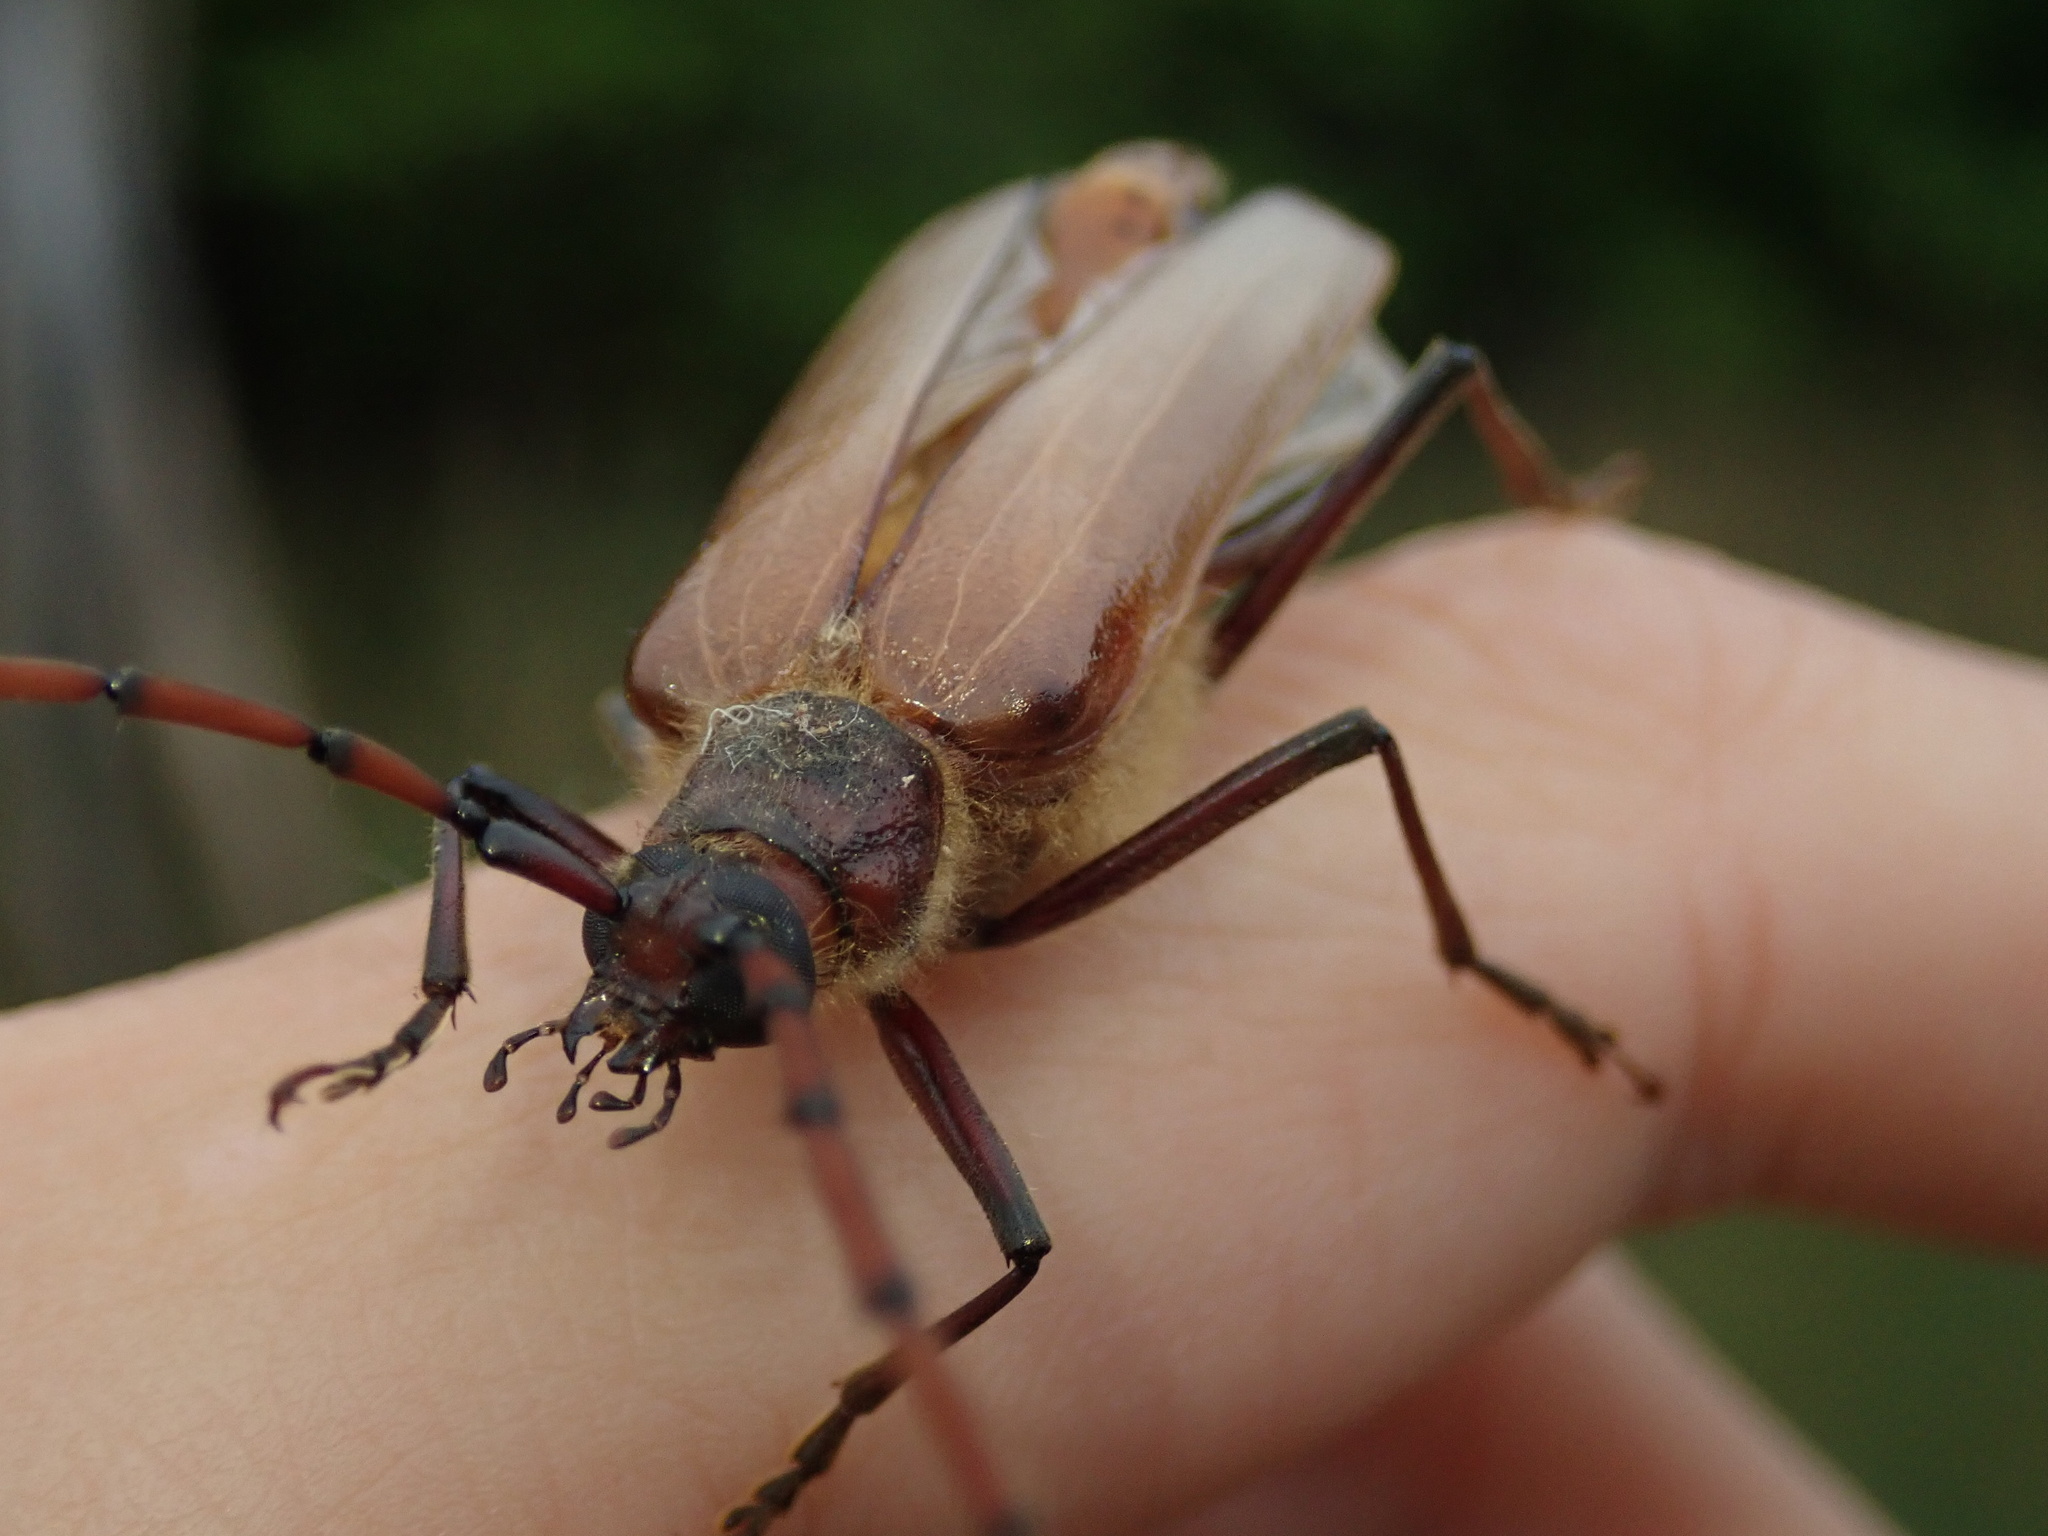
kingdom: Animalia
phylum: Arthropoda
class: Insecta
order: Coleoptera
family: Cerambycidae
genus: Ochrocydus
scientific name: Ochrocydus huttoni
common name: Kanuka longhorn
